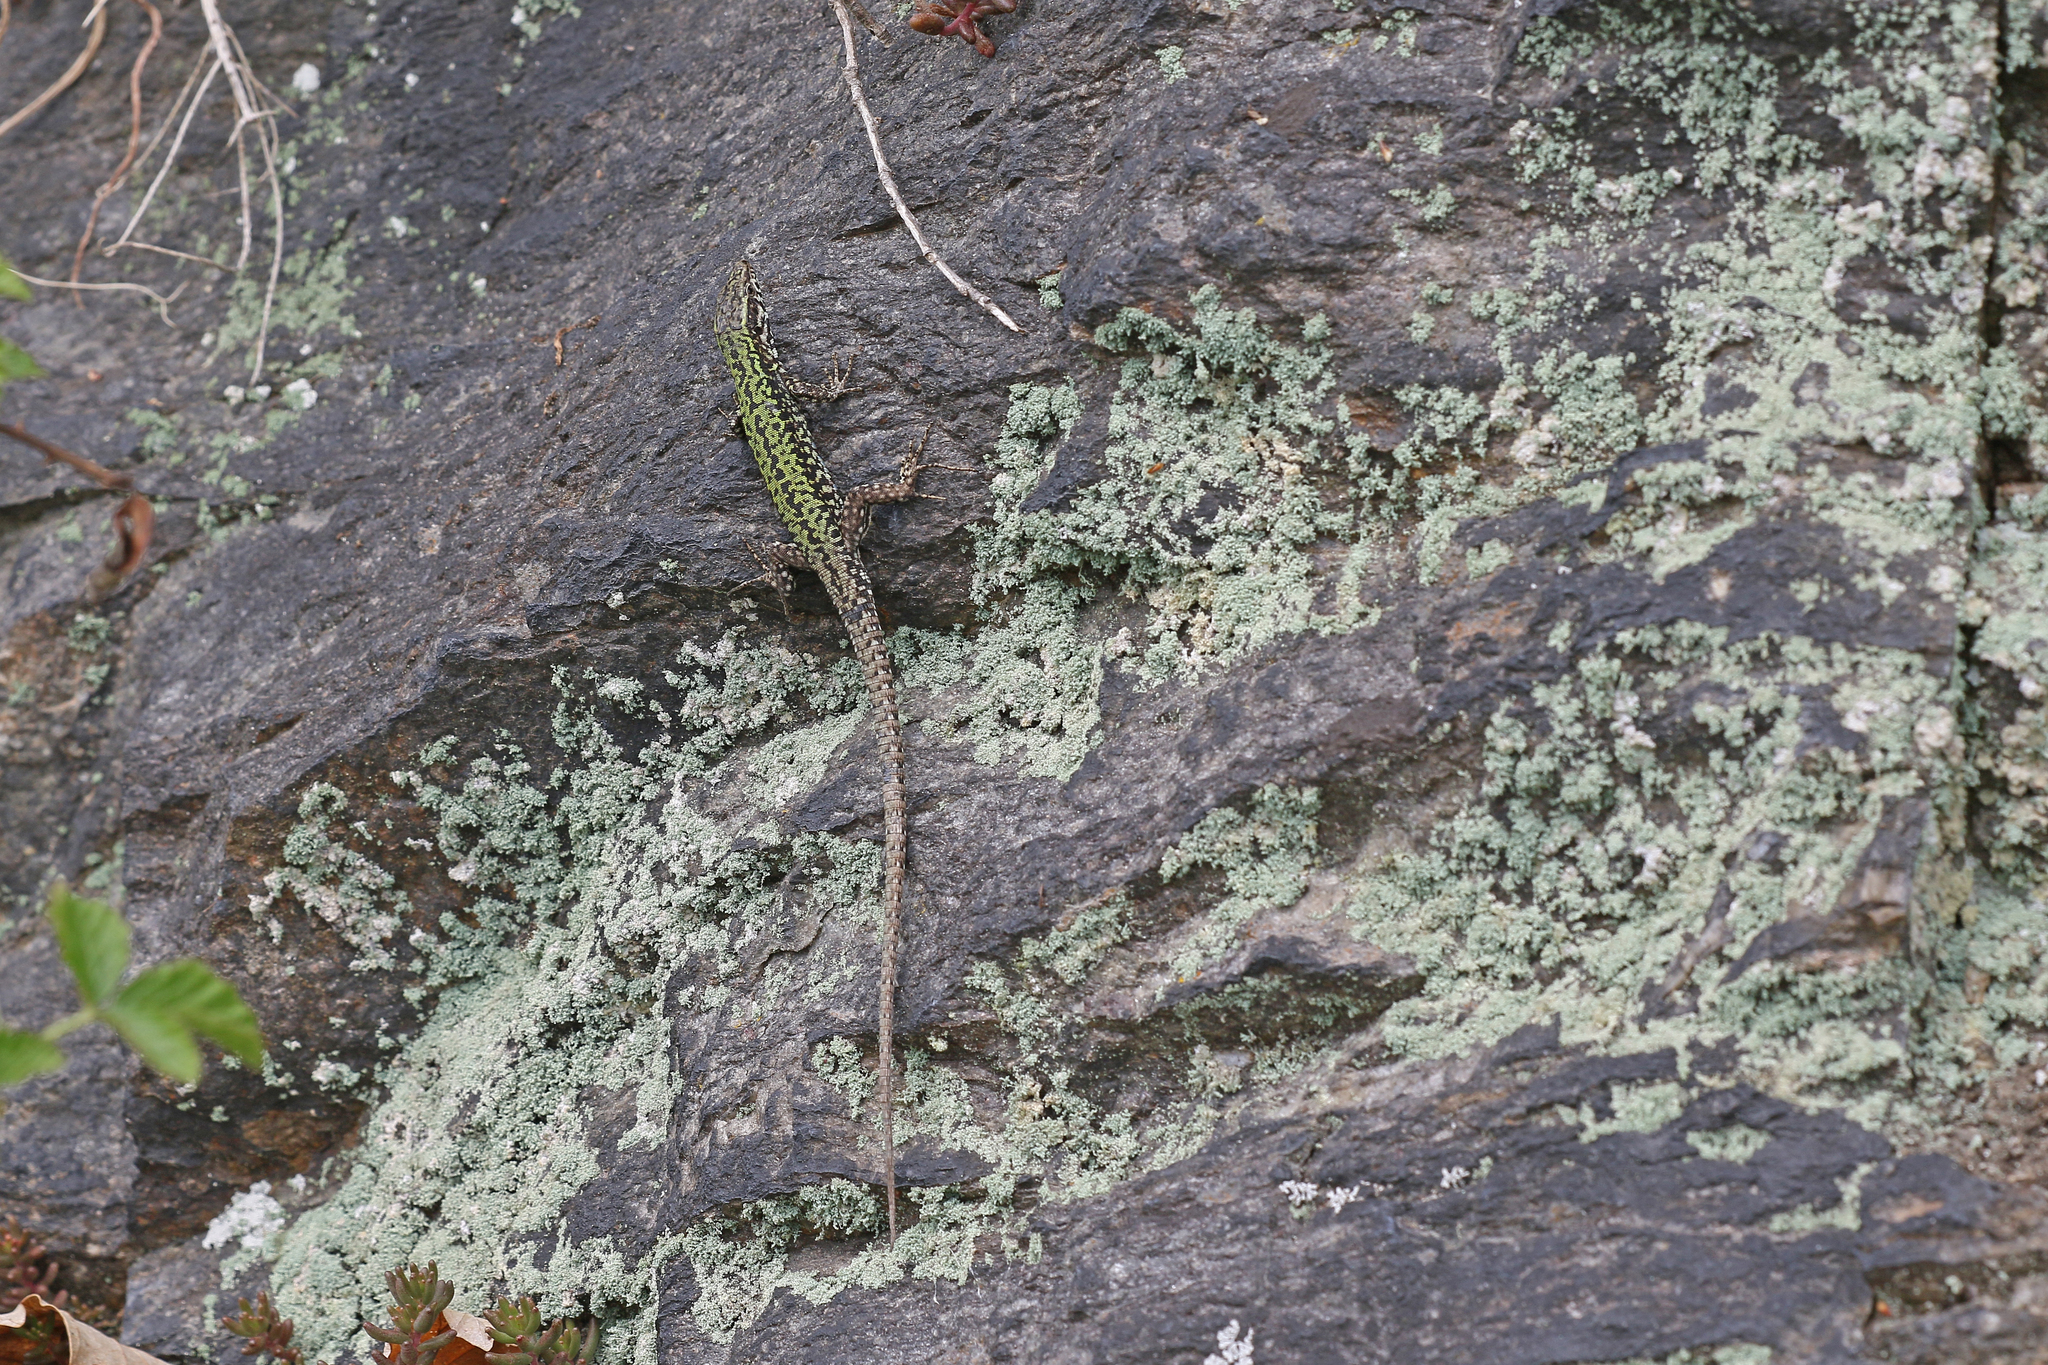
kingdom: Animalia
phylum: Chordata
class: Squamata
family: Lacertidae
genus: Podarcis
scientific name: Podarcis muralis
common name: Common wall lizard
